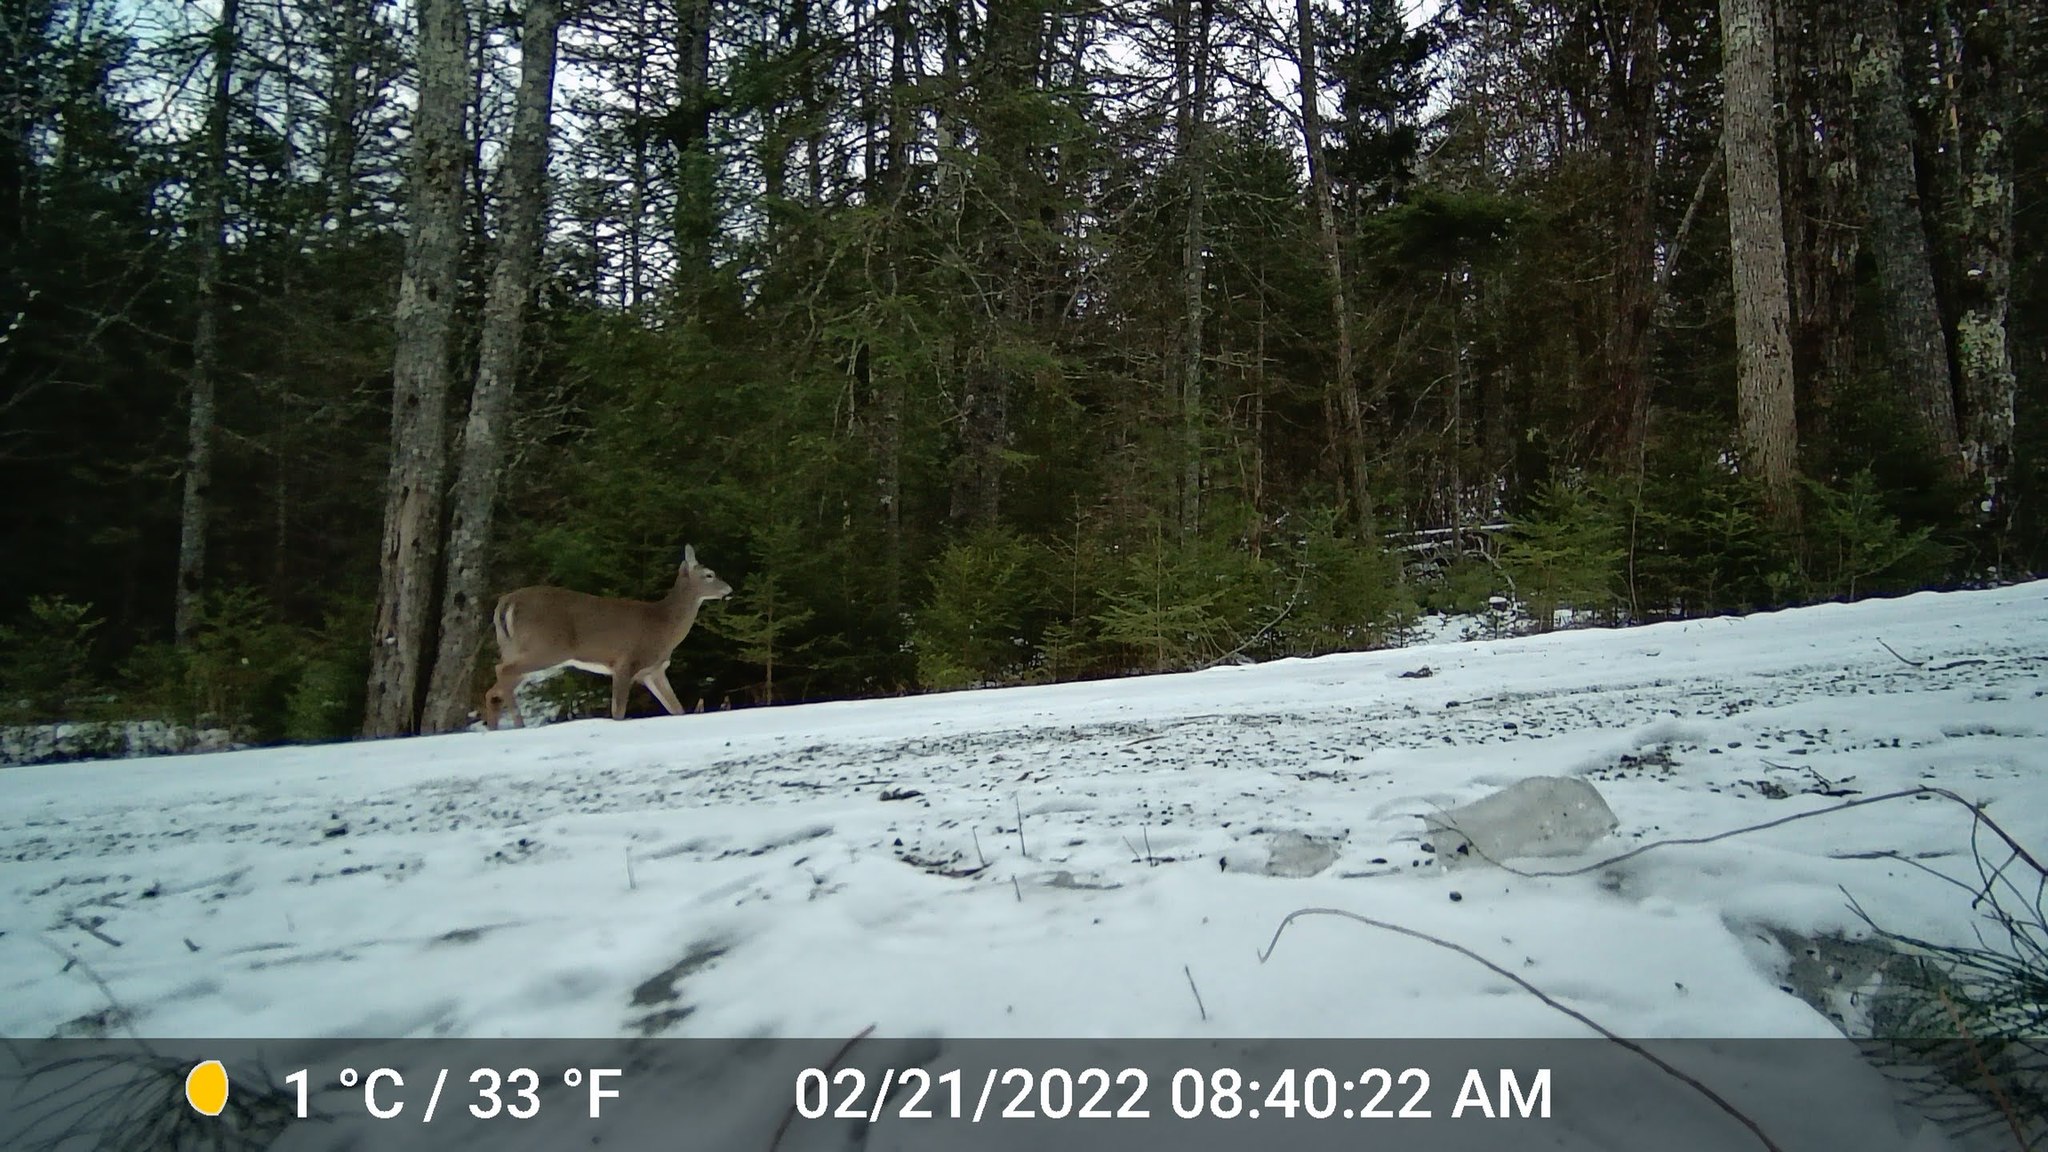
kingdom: Animalia
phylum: Chordata
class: Mammalia
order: Artiodactyla
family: Cervidae
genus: Odocoileus
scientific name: Odocoileus virginianus
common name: White-tailed deer
